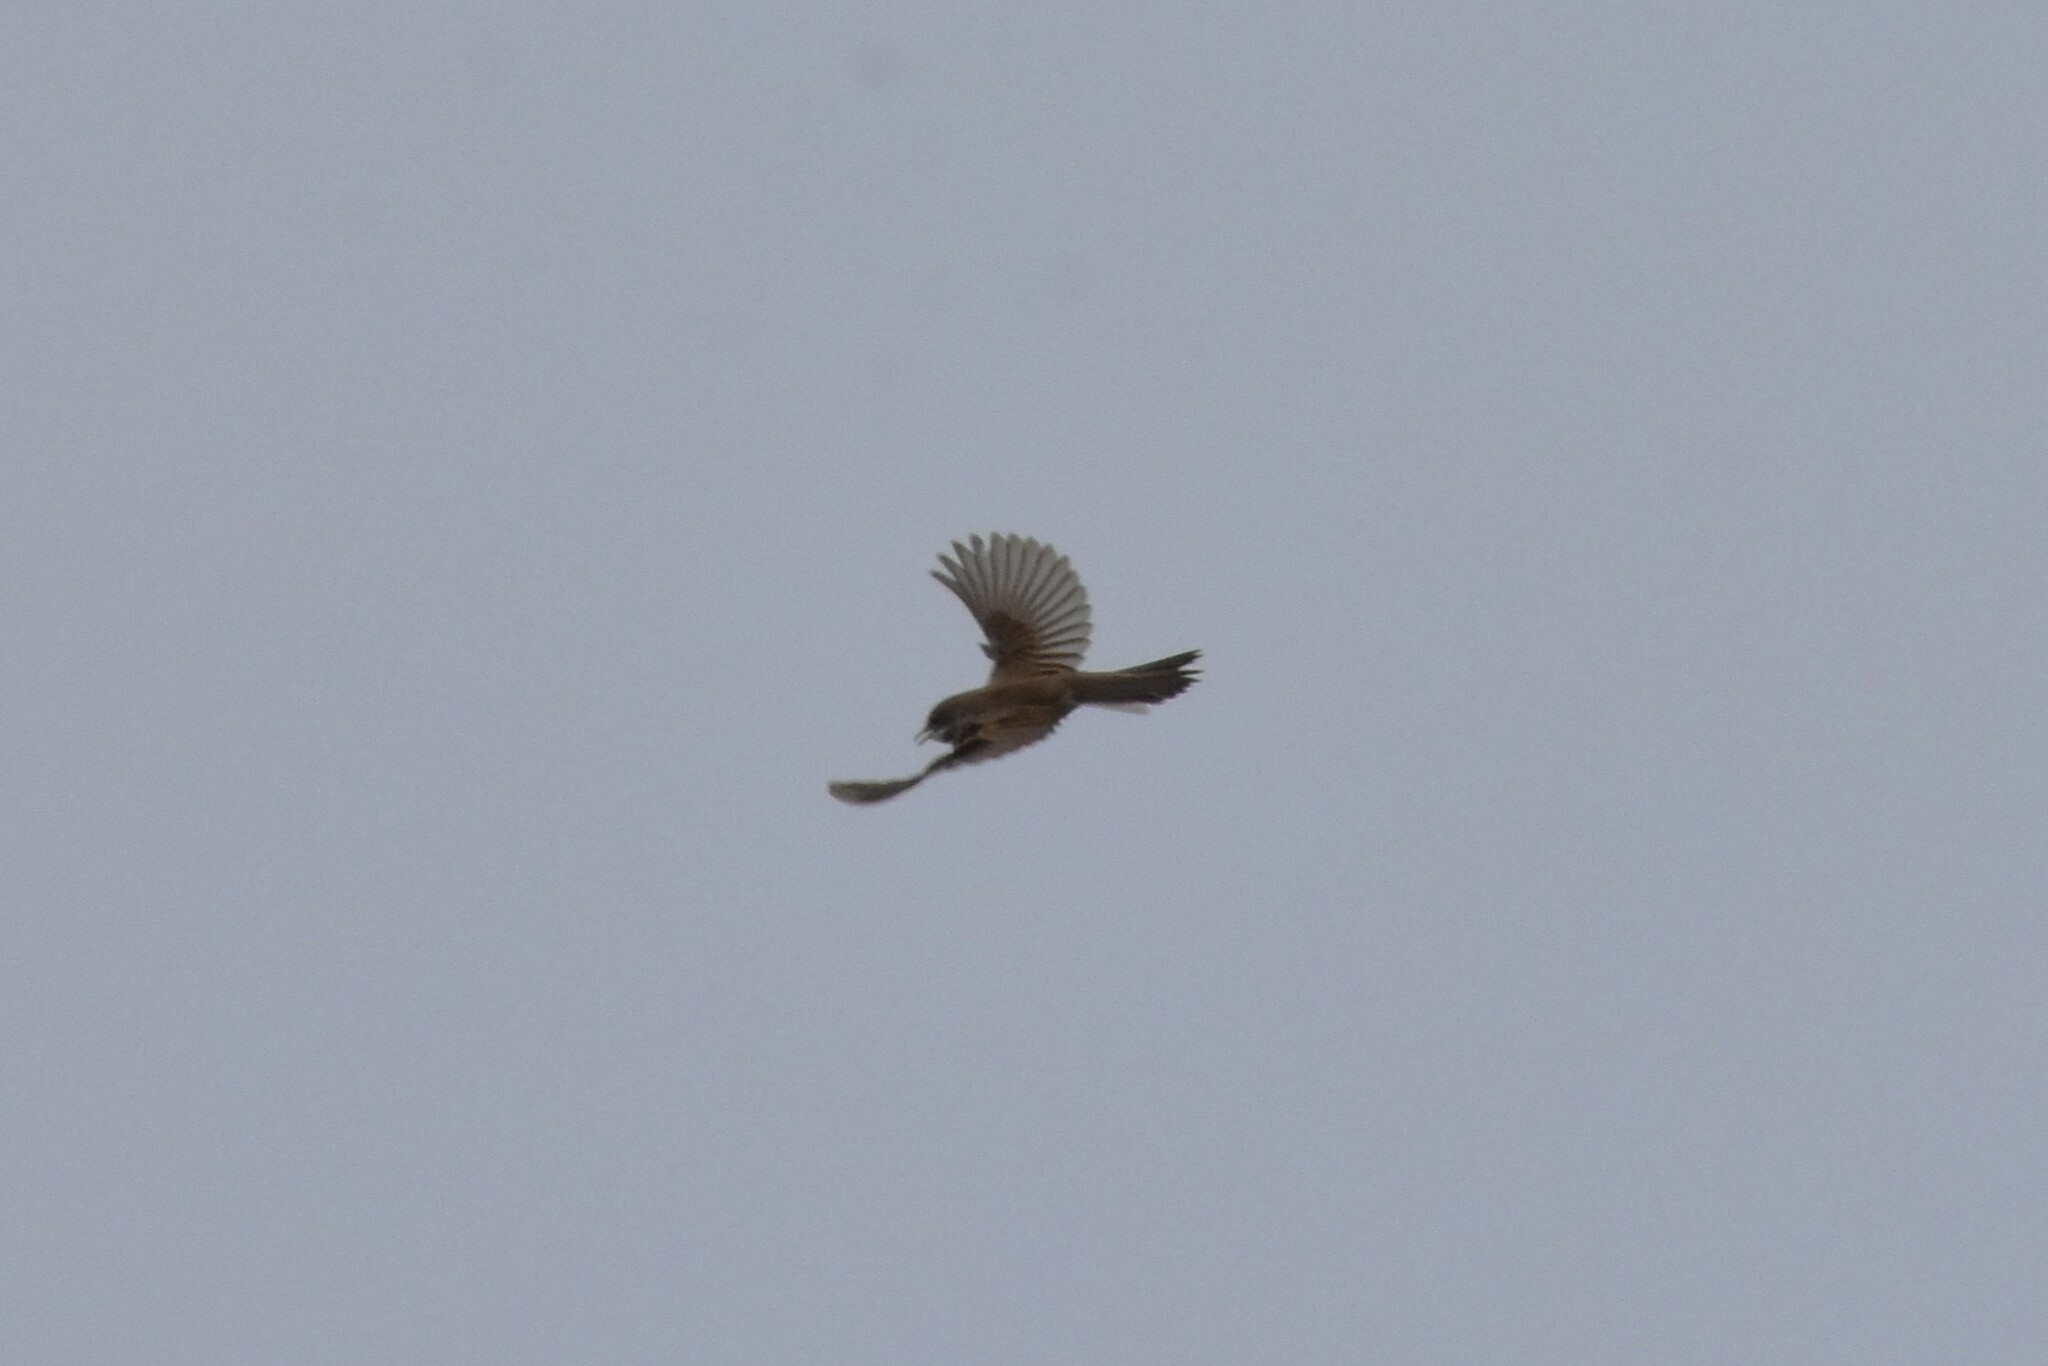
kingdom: Animalia
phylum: Chordata
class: Aves
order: Passeriformes
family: Sylviidae
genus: Sylvia
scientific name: Sylvia communis
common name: Common whitethroat
